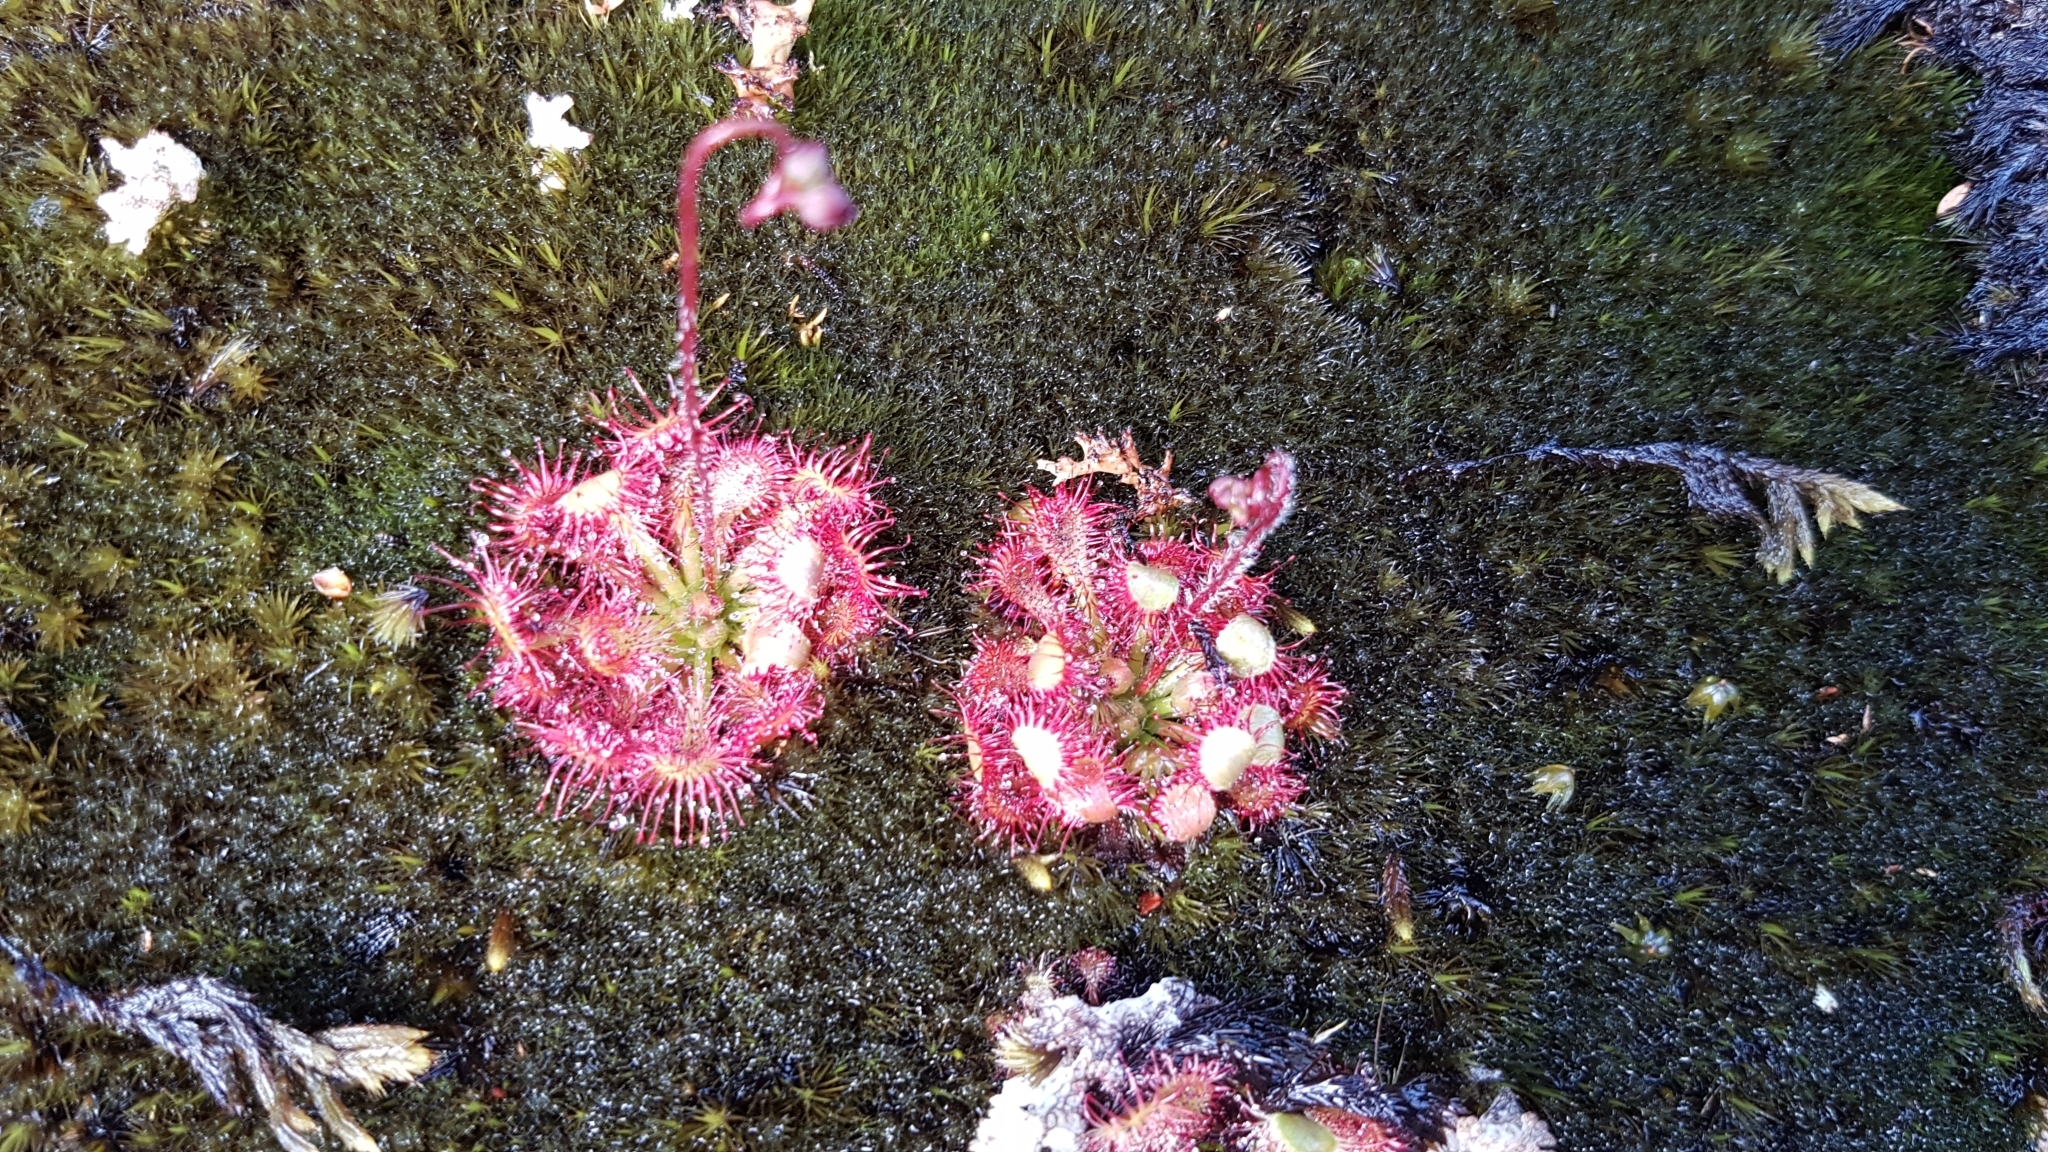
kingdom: Plantae
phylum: Tracheophyta
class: Magnoliopsida
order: Caryophyllales
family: Droseraceae
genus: Drosera
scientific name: Drosera spatulata
